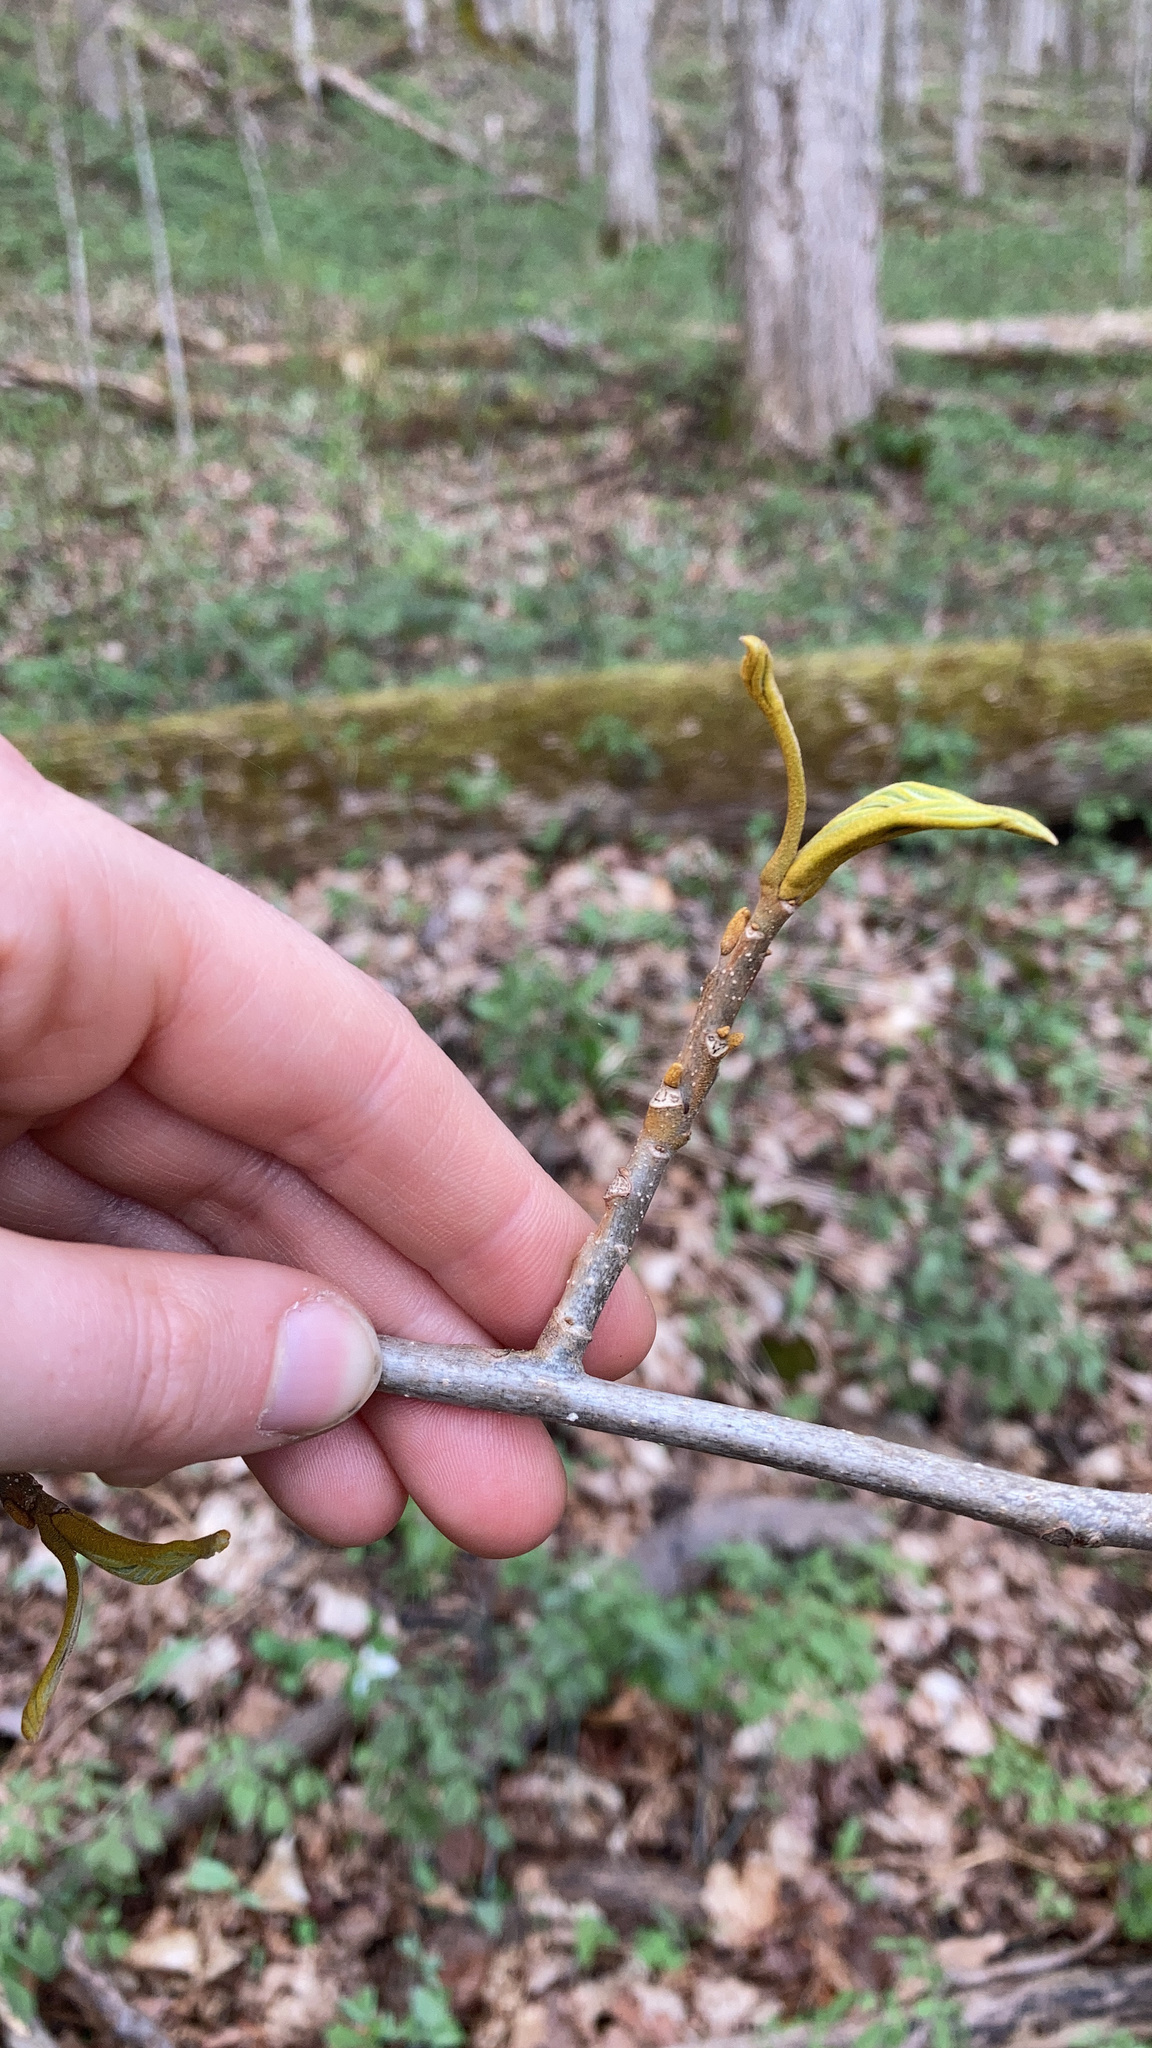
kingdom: Plantae
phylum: Tracheophyta
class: Magnoliopsida
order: Fagales
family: Juglandaceae
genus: Carya
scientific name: Carya cordiformis
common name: Bitternut hickory
